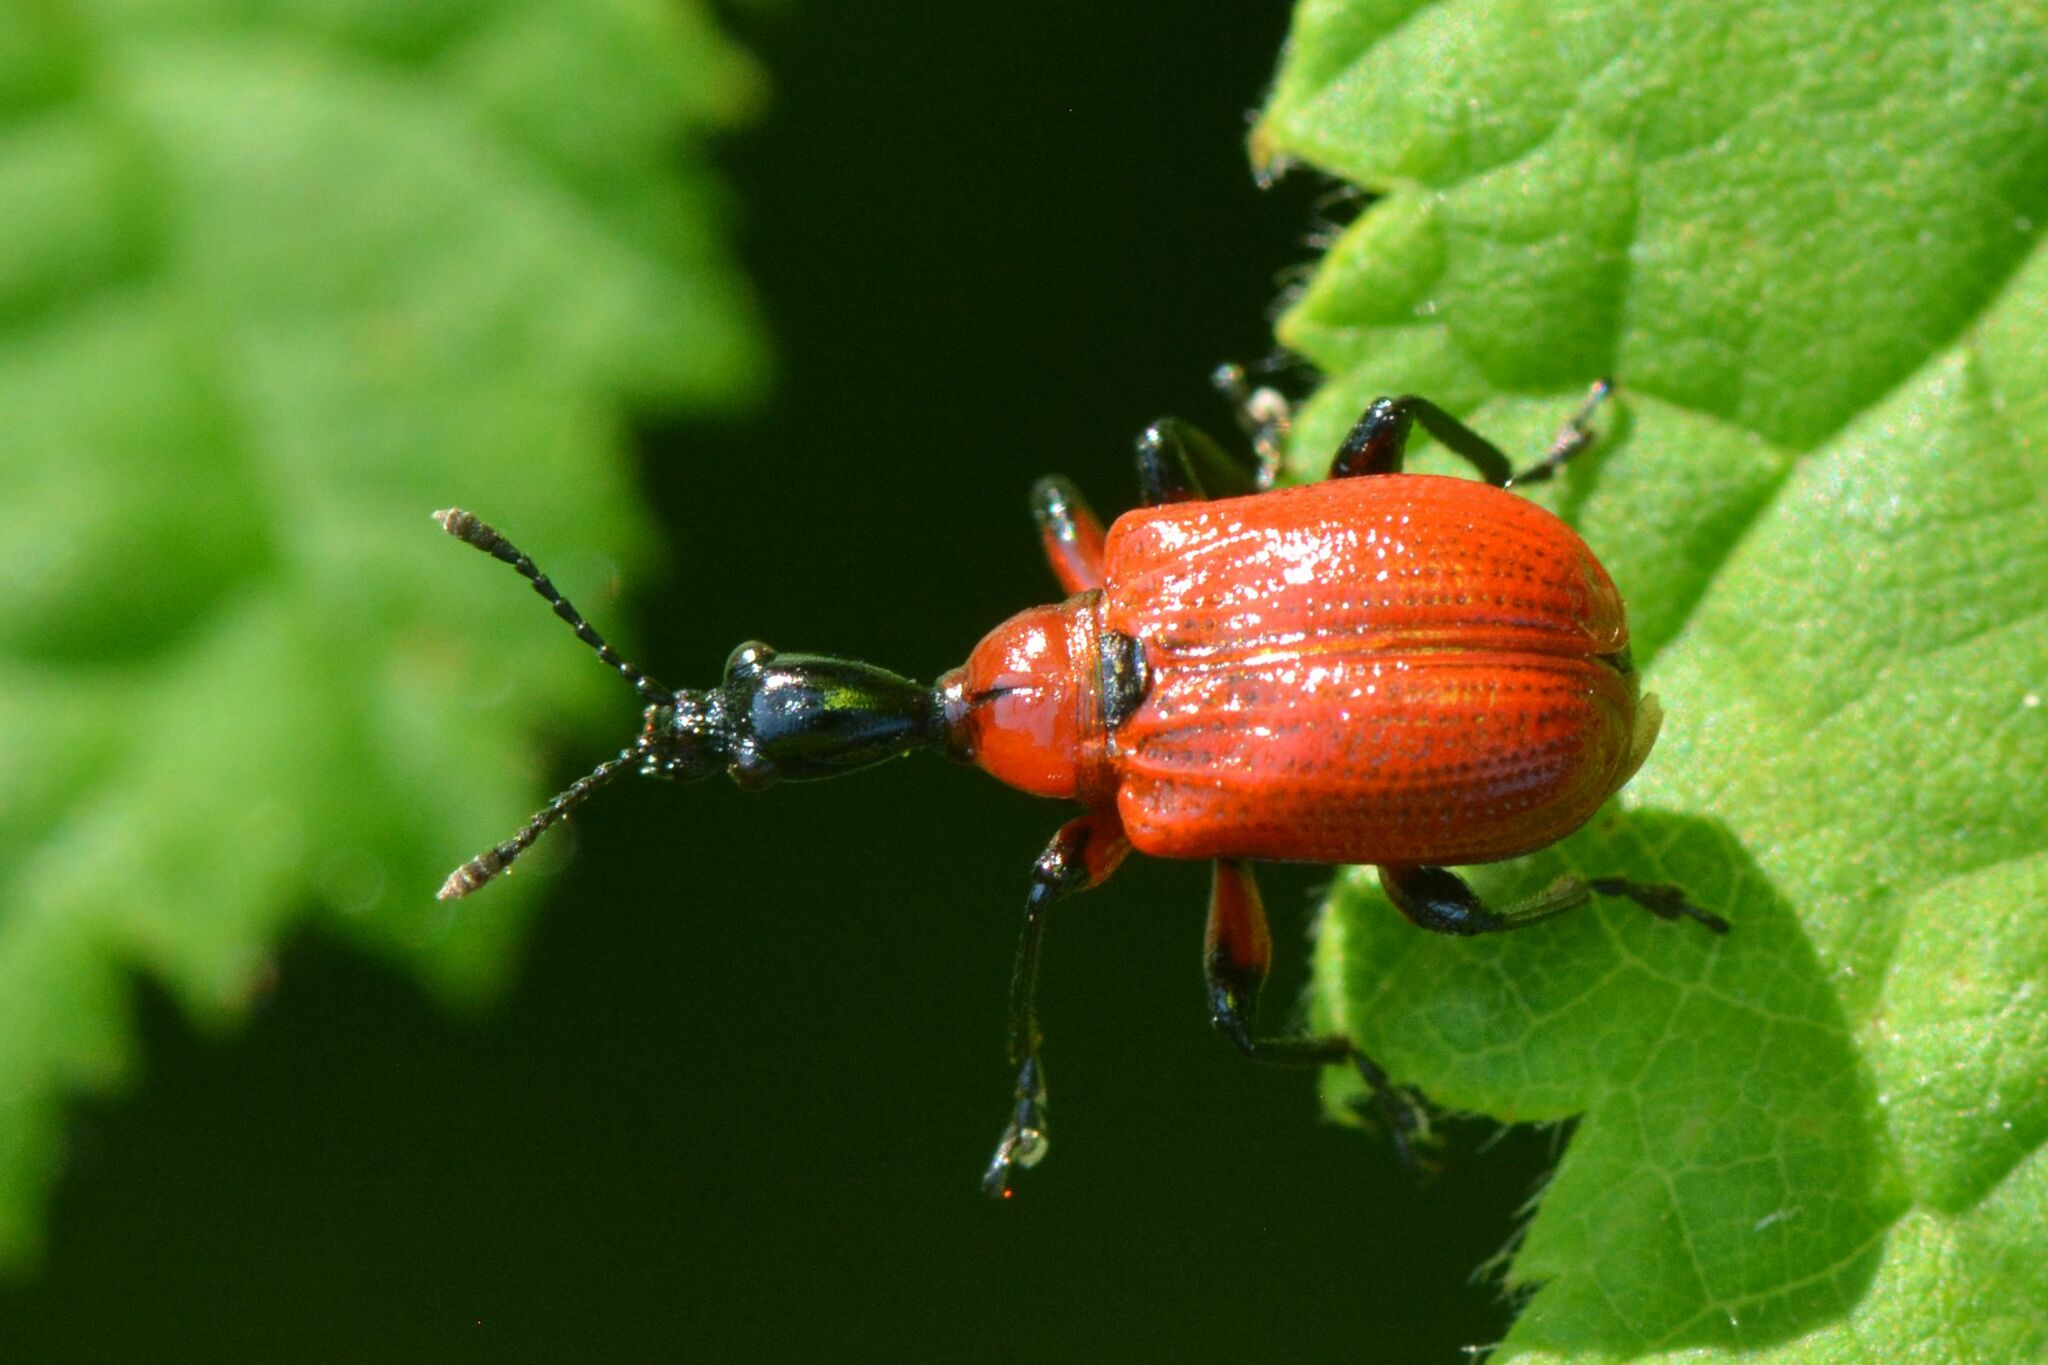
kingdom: Animalia
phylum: Arthropoda
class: Insecta
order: Coleoptera
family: Attelabidae
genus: Apoderus
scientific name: Apoderus coryli
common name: Hazel leaf roller
